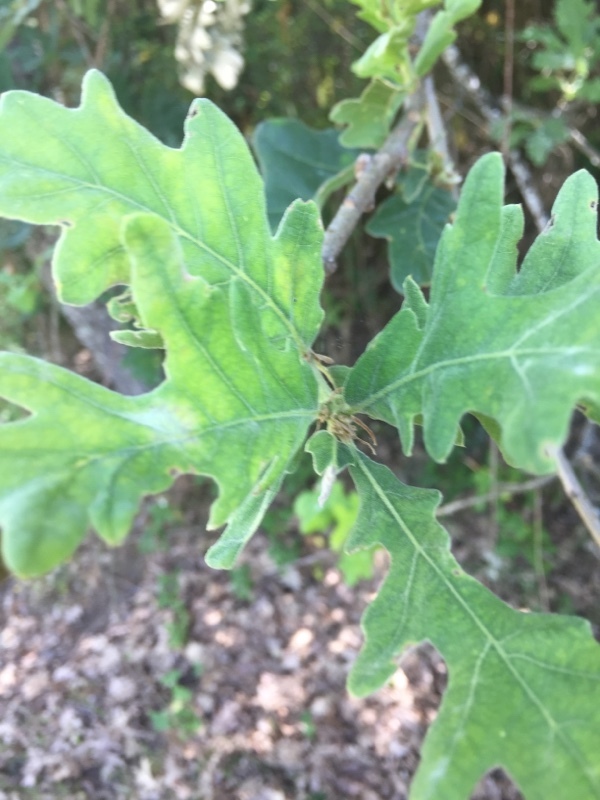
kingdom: Plantae
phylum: Tracheophyta
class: Magnoliopsida
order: Fagales
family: Fagaceae
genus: Quercus
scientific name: Quercus pyrenaica
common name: Pyrenean oak
